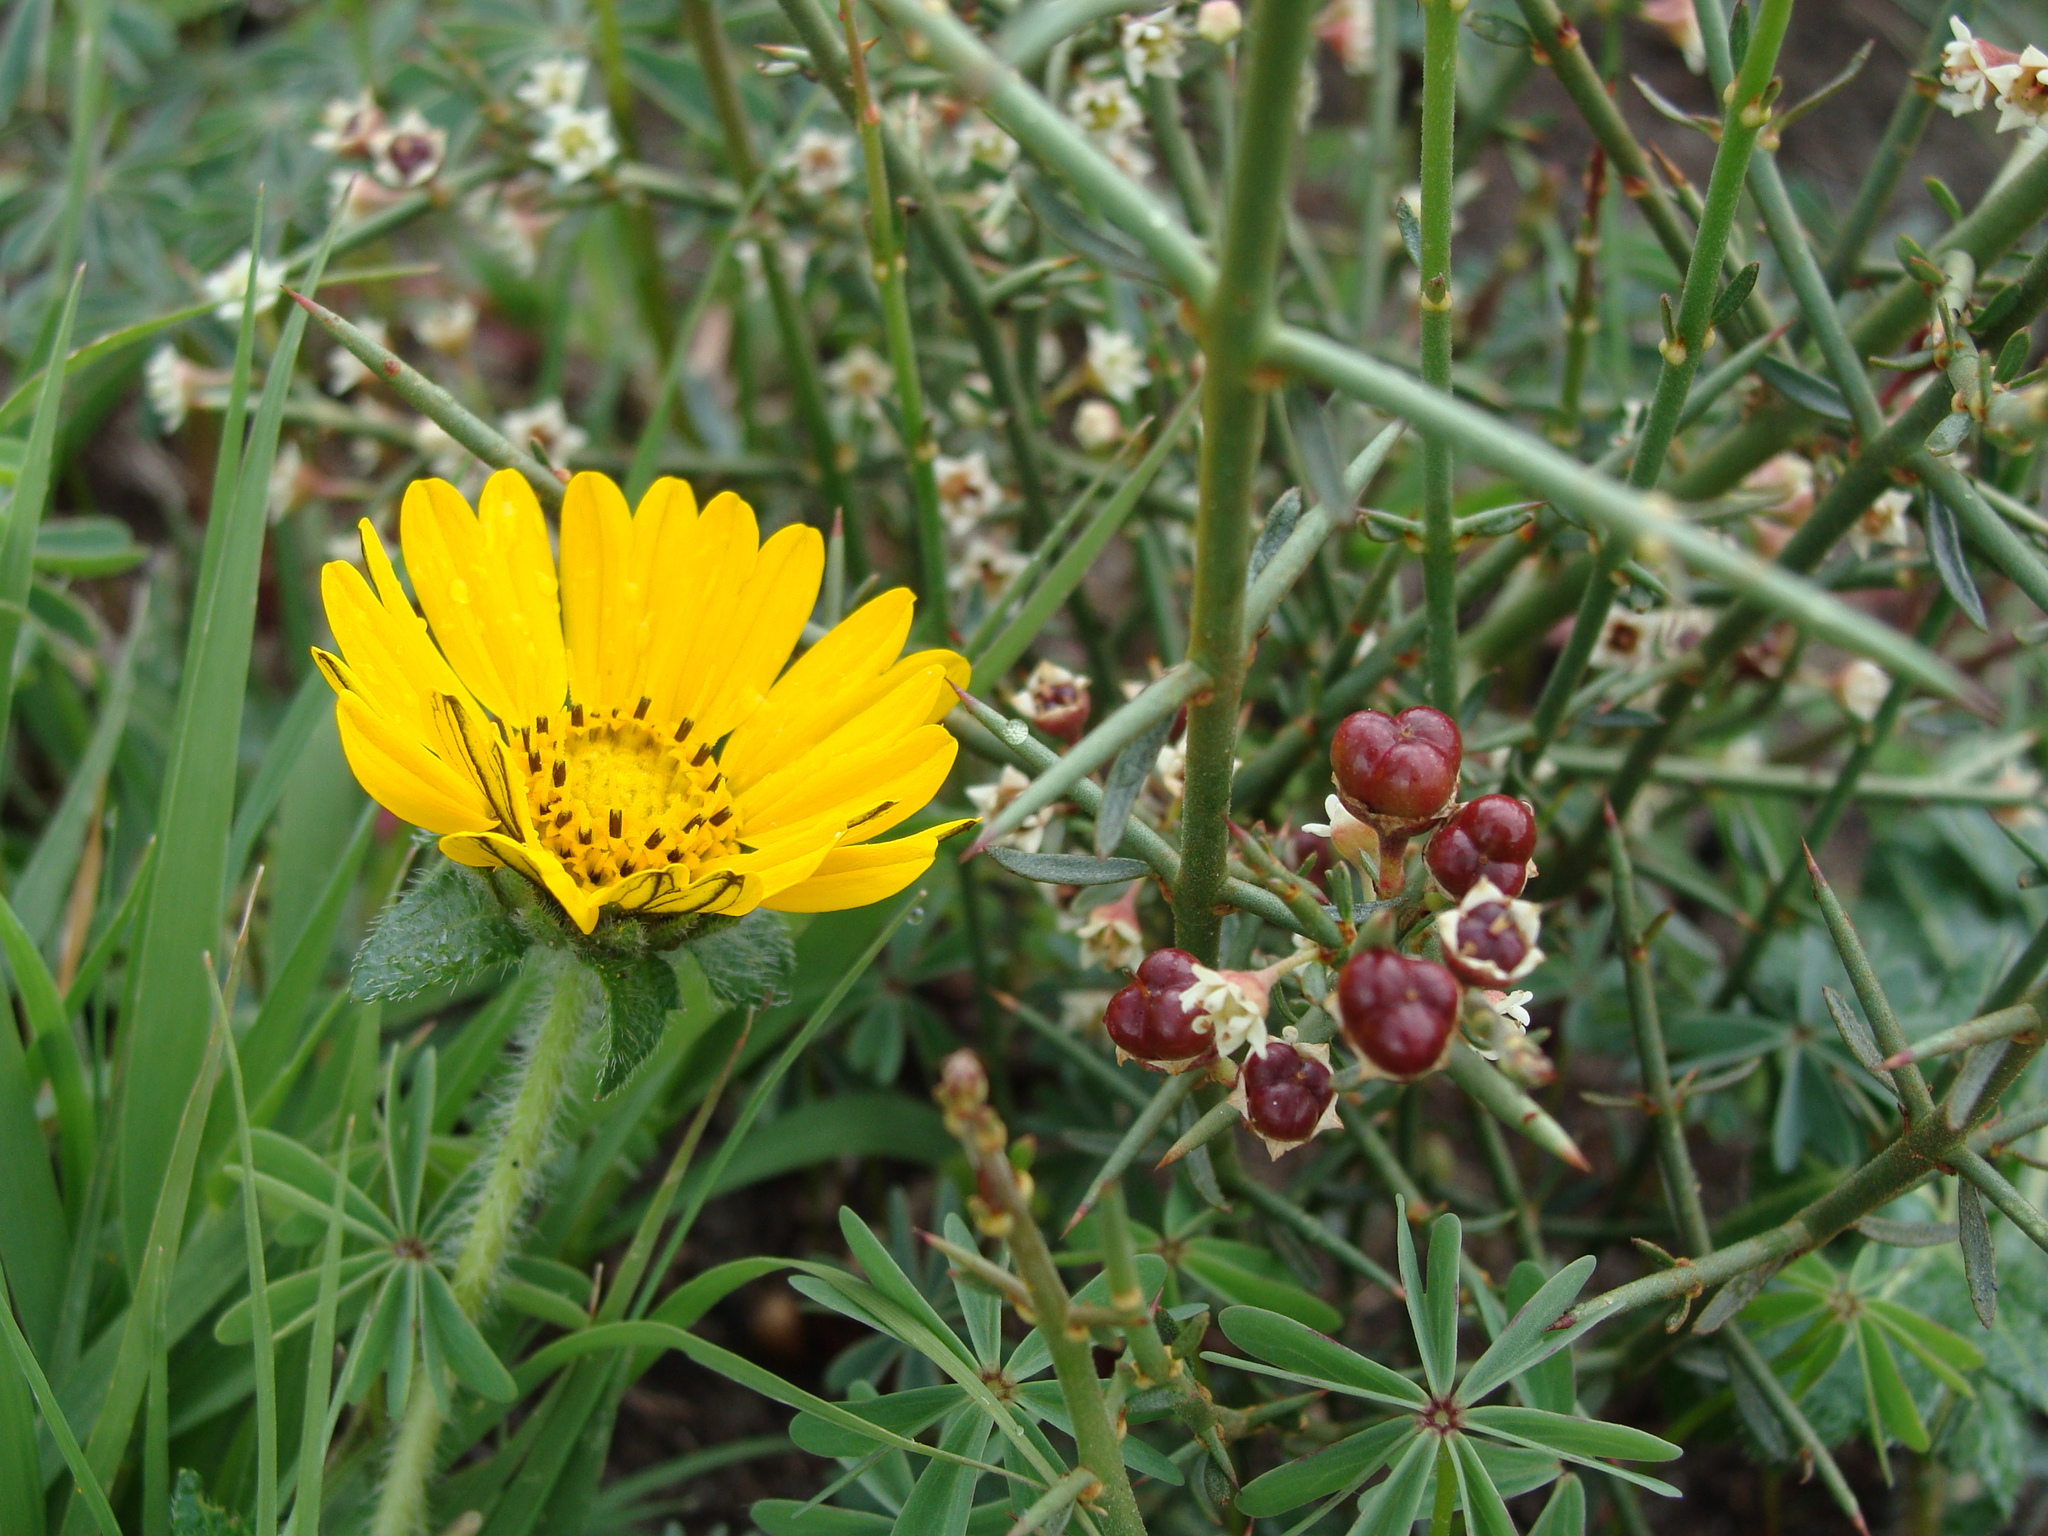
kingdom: Plantae
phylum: Tracheophyta
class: Magnoliopsida
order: Rosales
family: Rhamnaceae
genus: Adolphia
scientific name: Adolphia infesta
